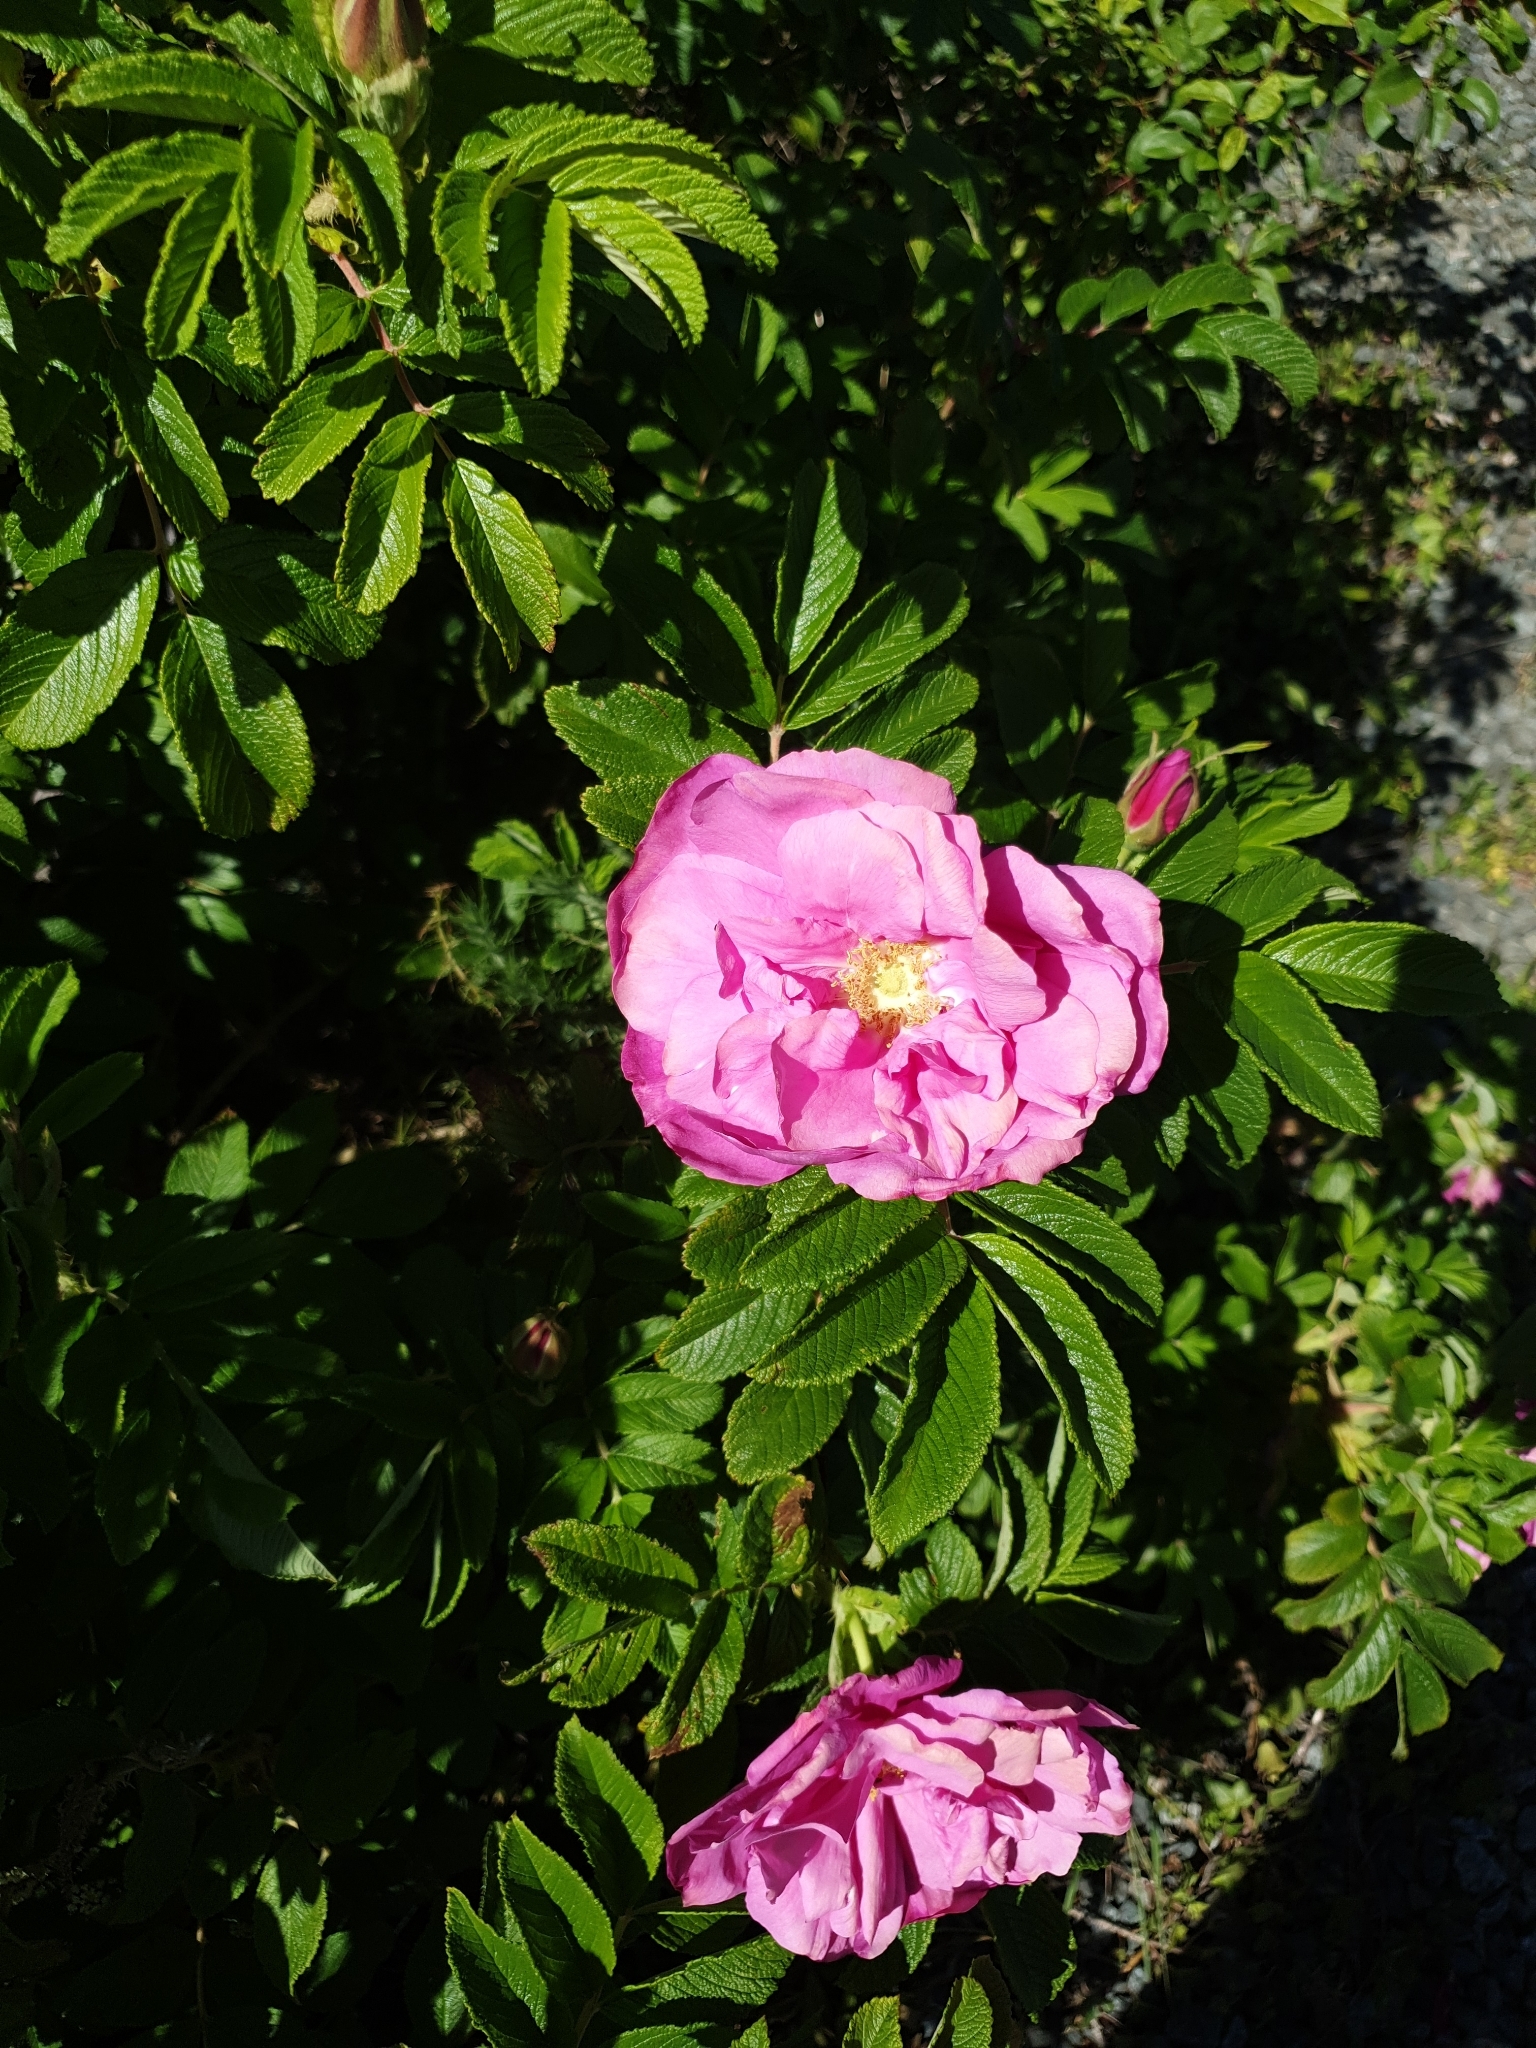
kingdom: Plantae
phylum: Tracheophyta
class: Magnoliopsida
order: Rosales
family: Rosaceae
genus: Rosa
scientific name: Rosa rugosa
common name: Japanese rose
